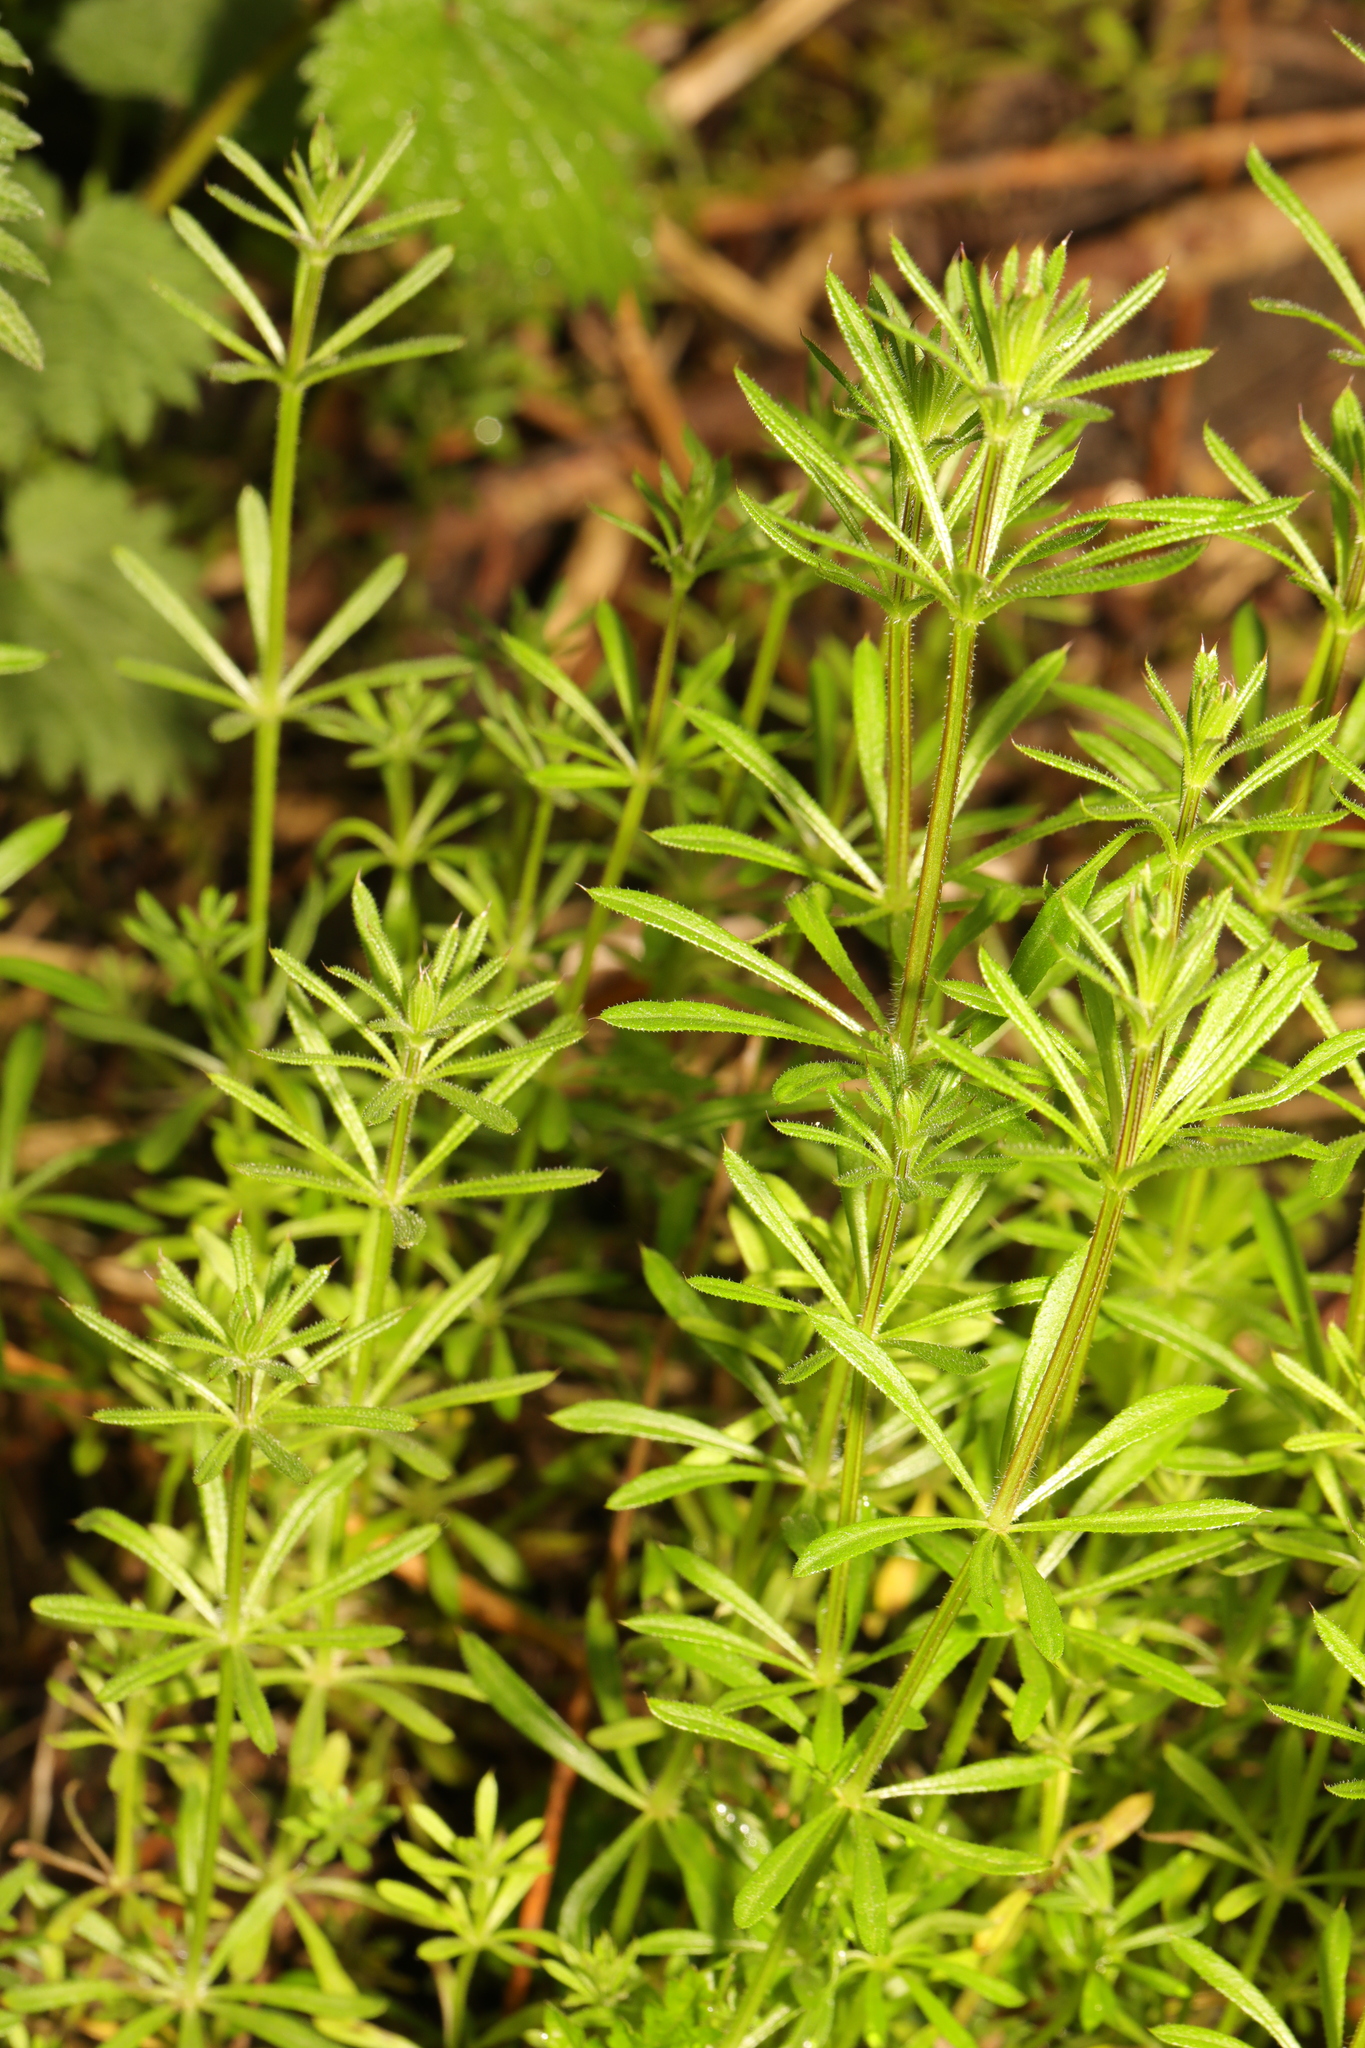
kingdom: Plantae
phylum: Tracheophyta
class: Magnoliopsida
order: Gentianales
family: Rubiaceae
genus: Galium
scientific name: Galium aparine
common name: Cleavers
